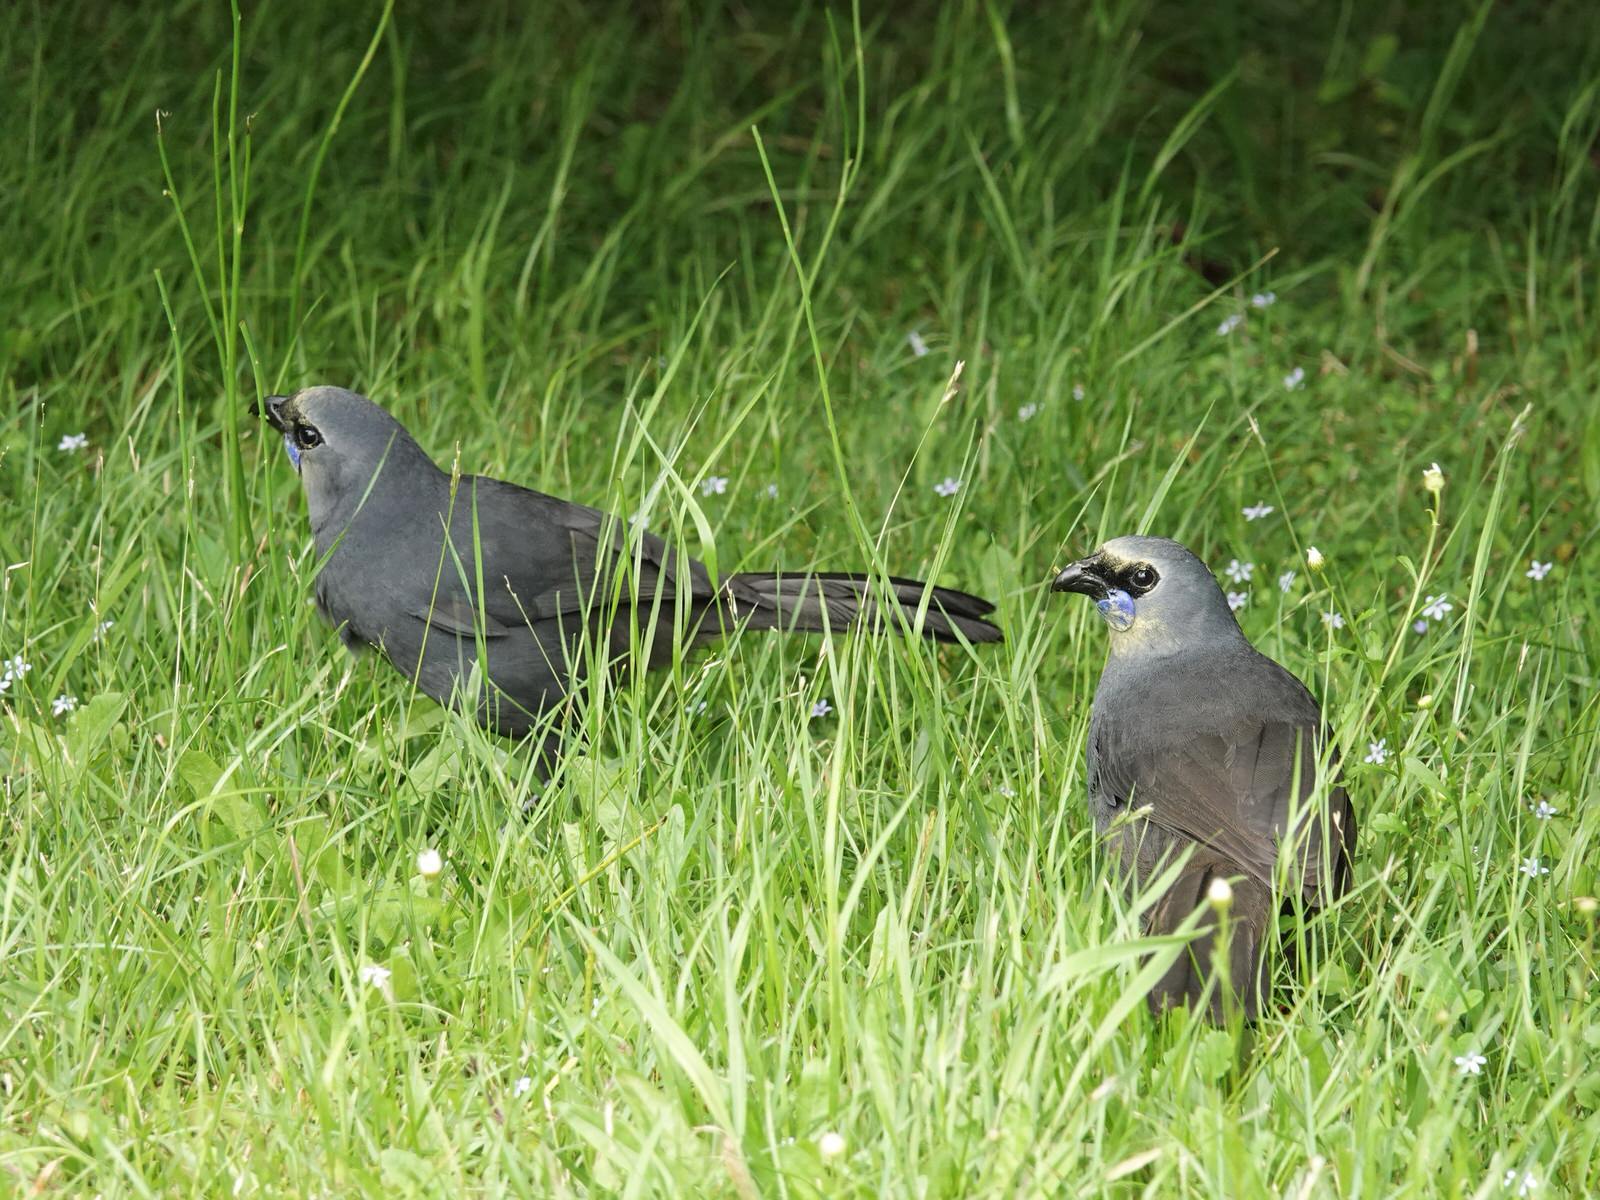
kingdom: Animalia
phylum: Chordata
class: Aves
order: Passeriformes
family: Callaeatidae
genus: Callaeas
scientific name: Callaeas cinereus
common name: South island kokako
